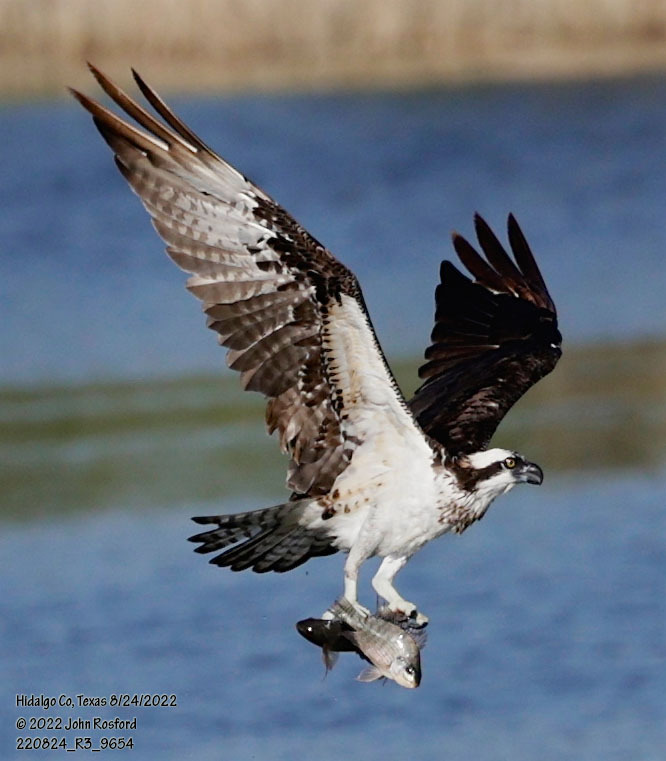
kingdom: Animalia
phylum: Chordata
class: Aves
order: Accipitriformes
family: Pandionidae
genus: Pandion
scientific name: Pandion haliaetus
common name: Osprey
